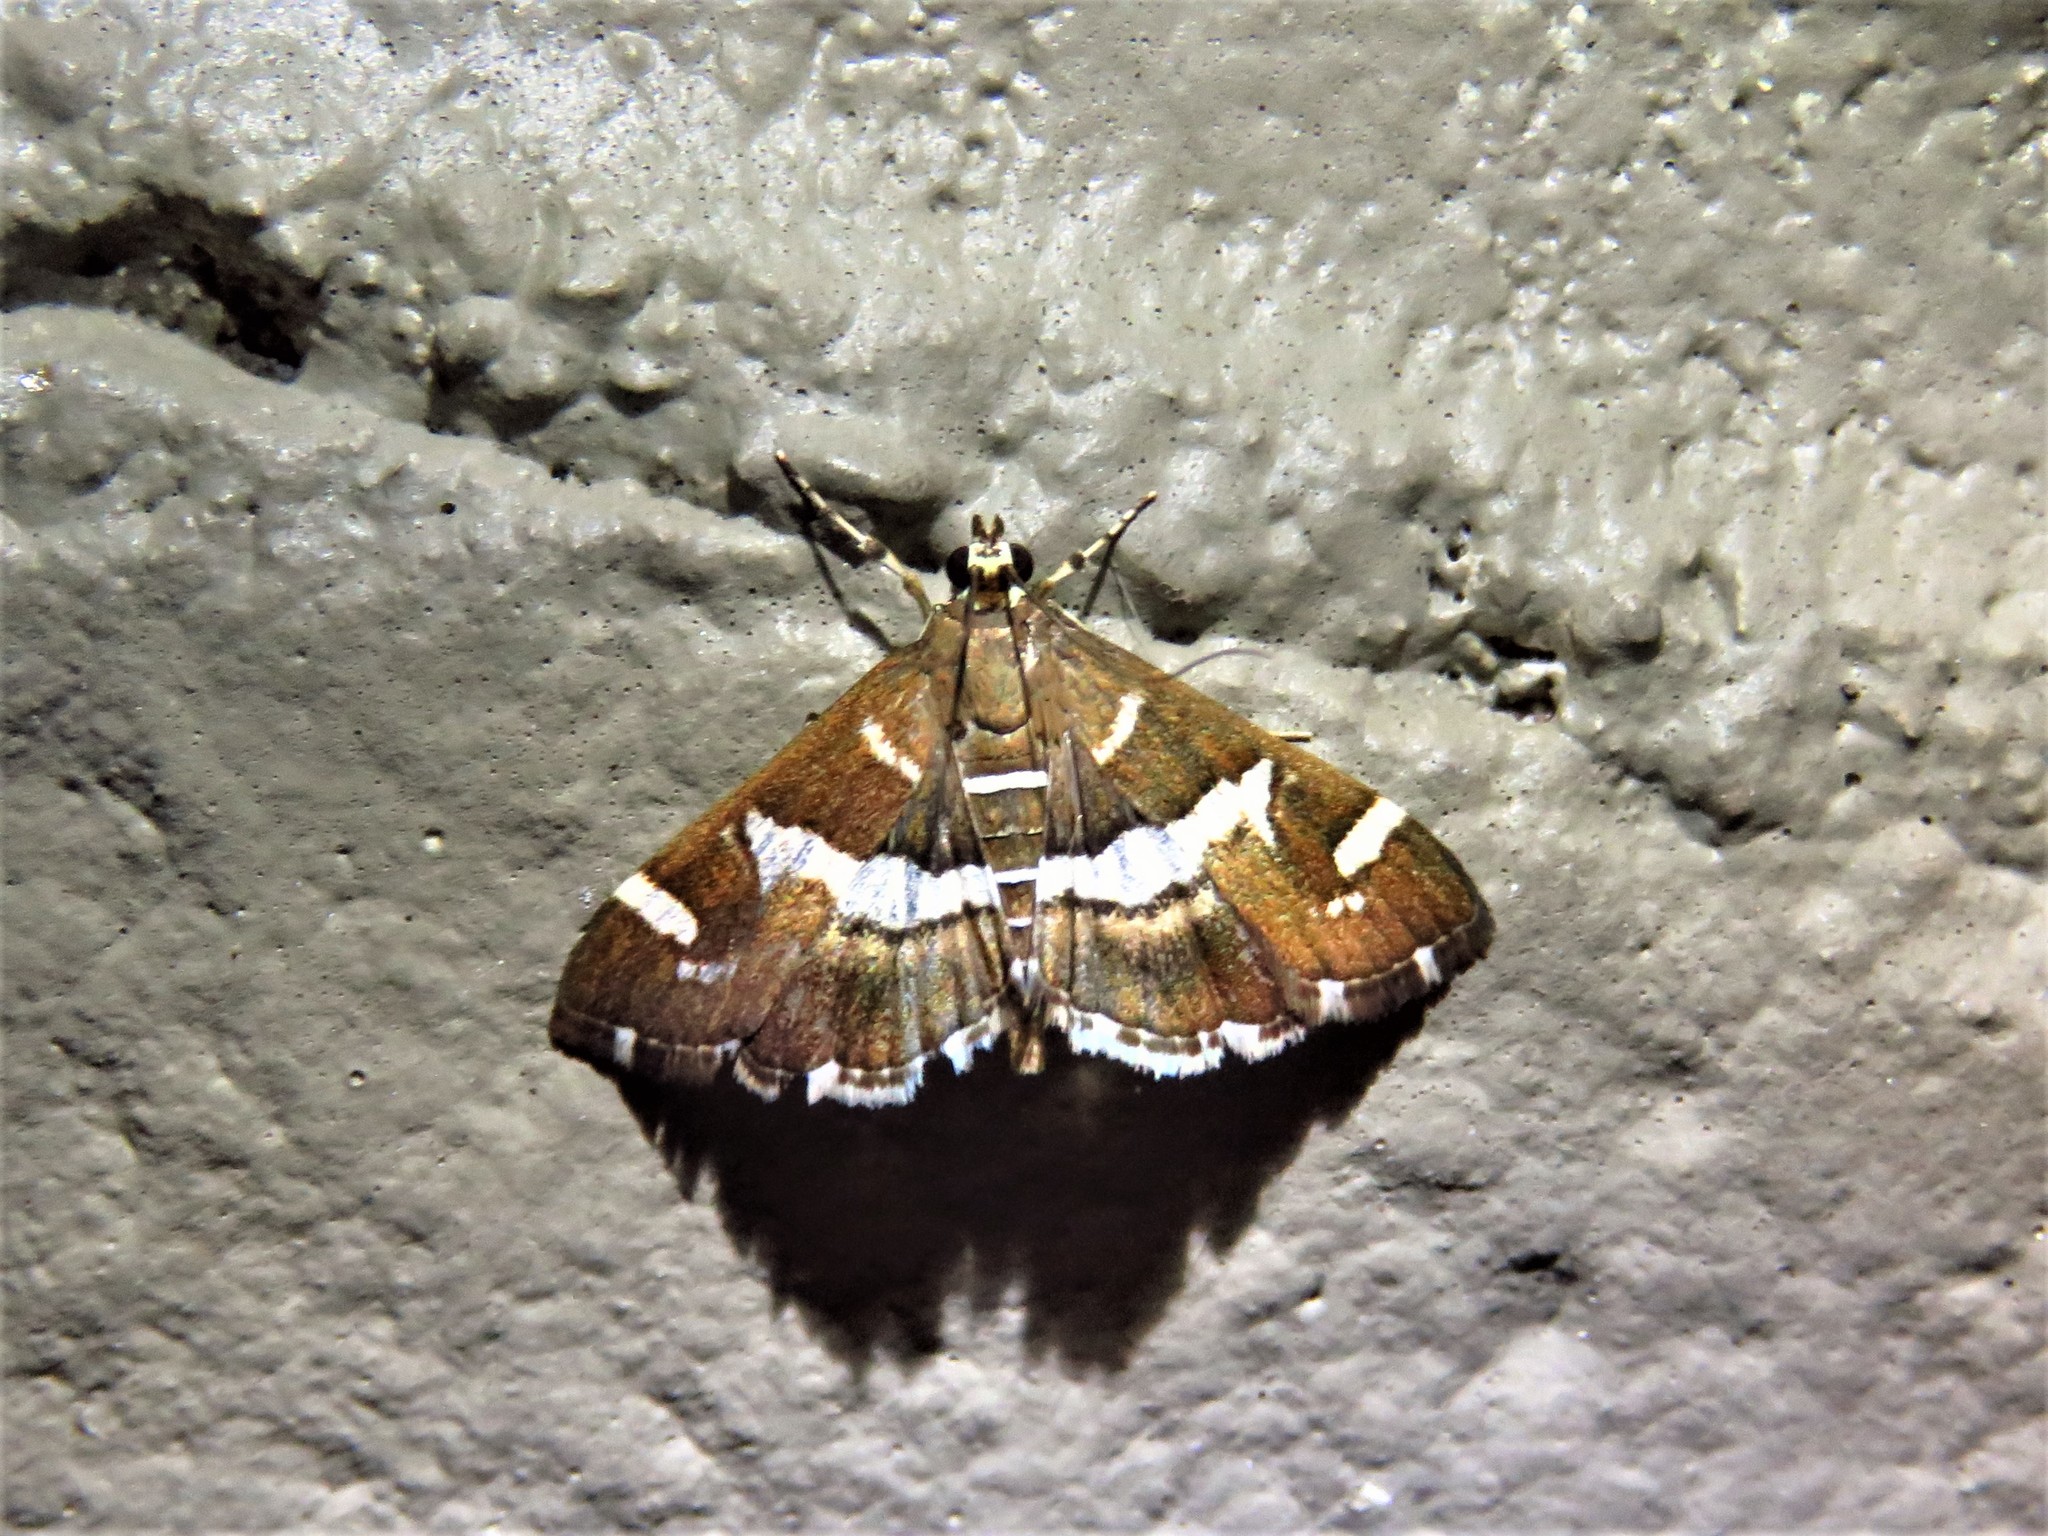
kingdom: Animalia
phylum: Arthropoda
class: Insecta
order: Lepidoptera
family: Crambidae
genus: Spoladea
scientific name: Spoladea recurvalis
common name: Beet webworm moth
